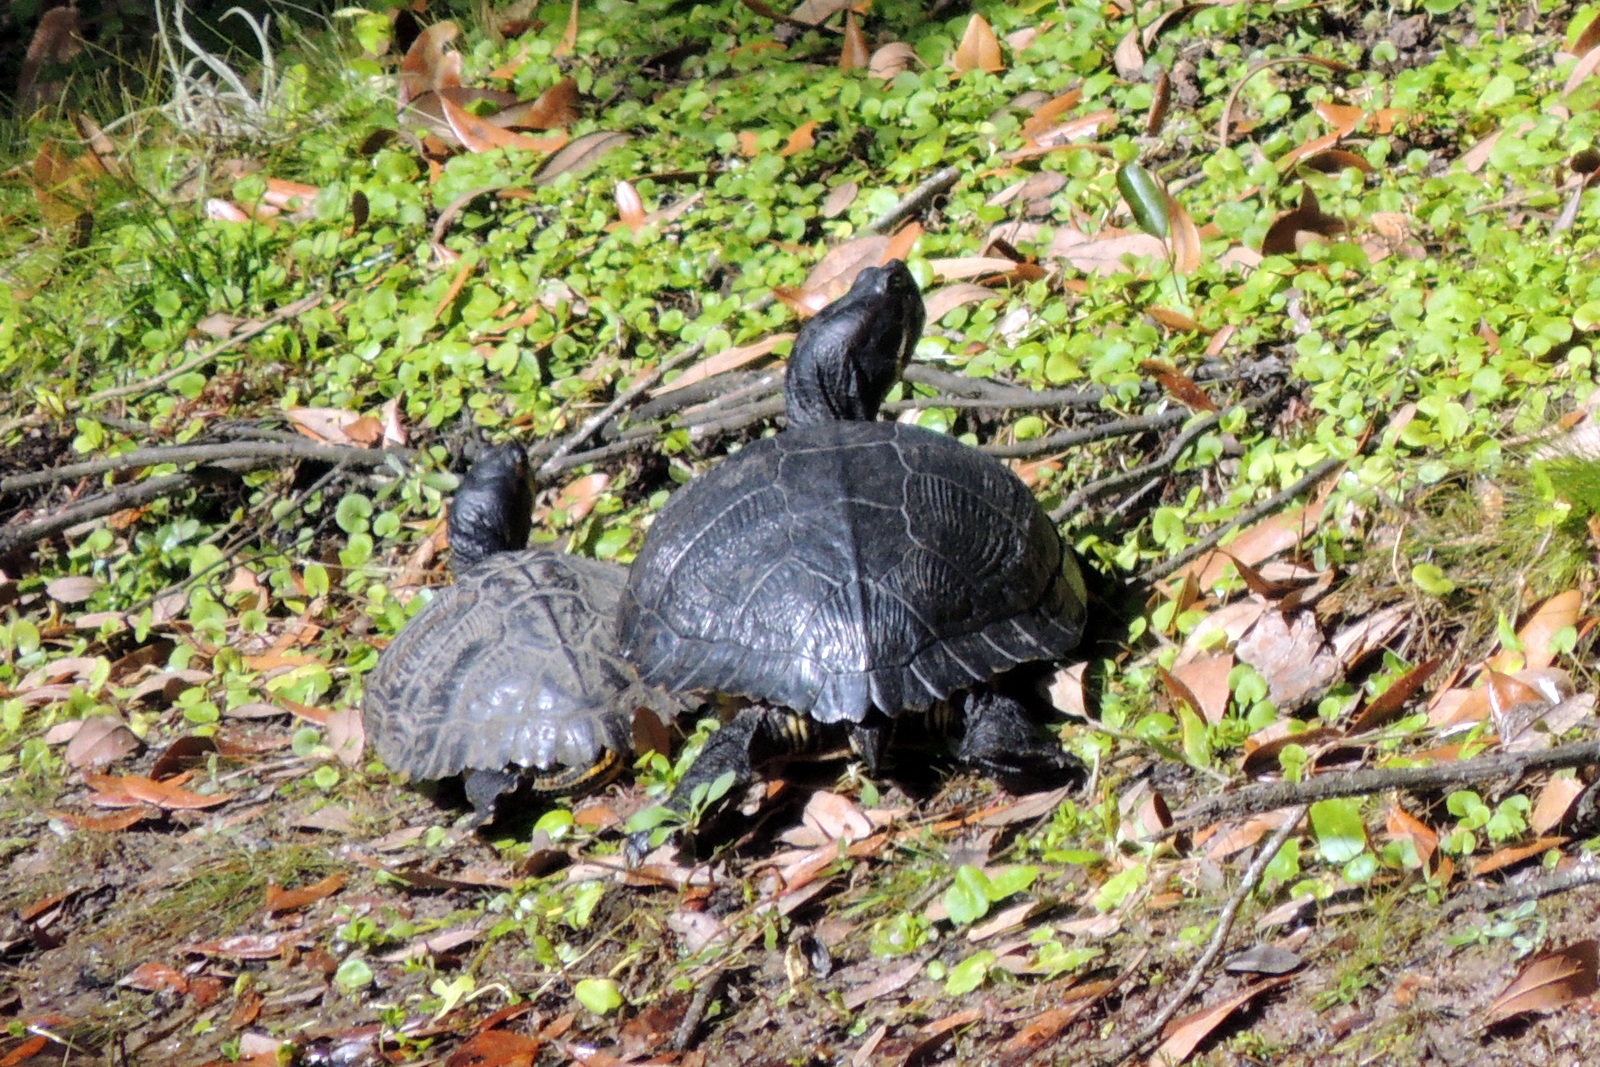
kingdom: Animalia
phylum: Chordata
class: Testudines
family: Emydidae
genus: Trachemys
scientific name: Trachemys scripta
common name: Slider
